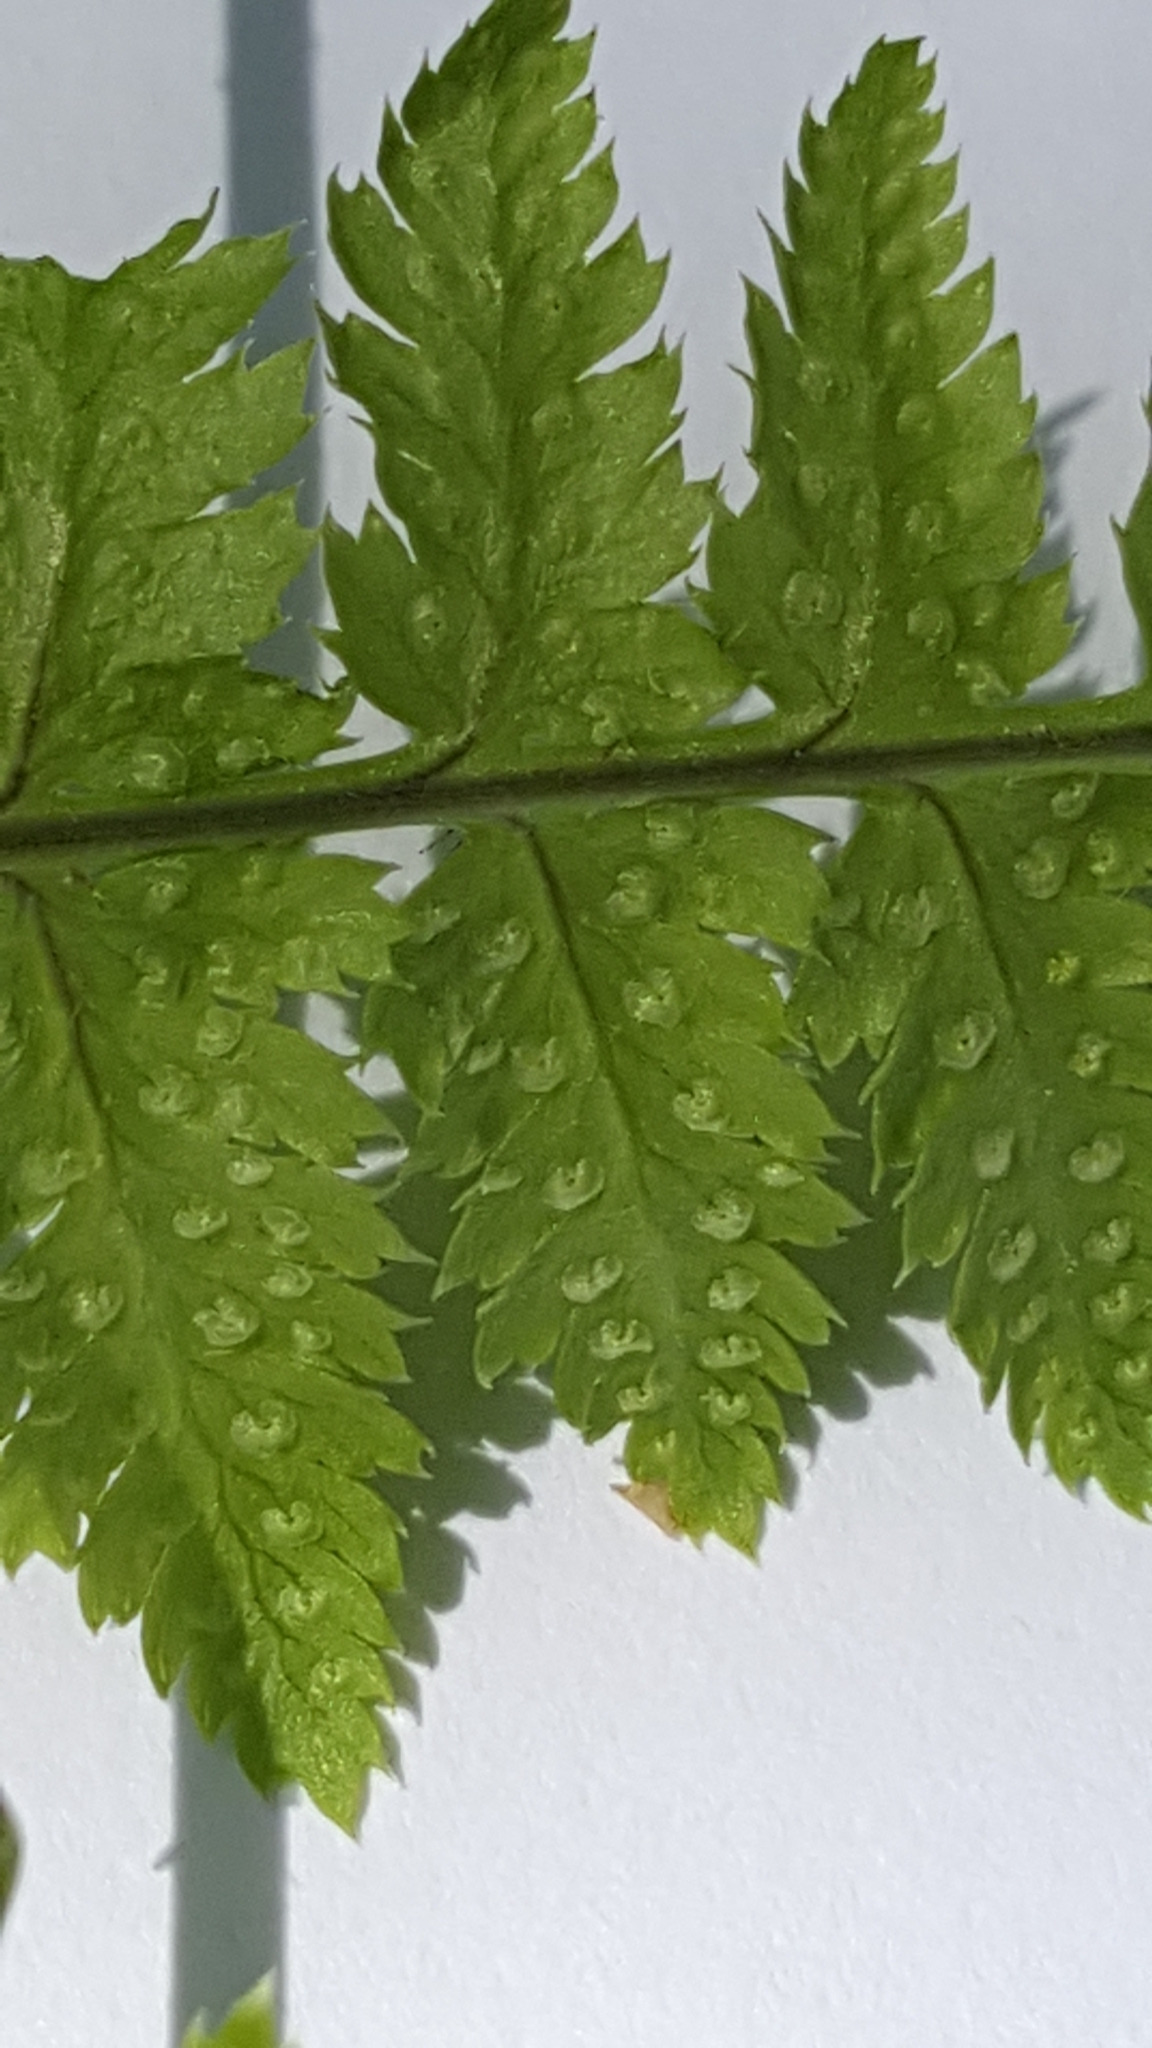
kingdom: Plantae
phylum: Tracheophyta
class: Polypodiopsida
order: Polypodiales
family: Dryopteridaceae
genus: Dryopteris
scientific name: Dryopteris carthusiana
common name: Narrow buckler-fern
